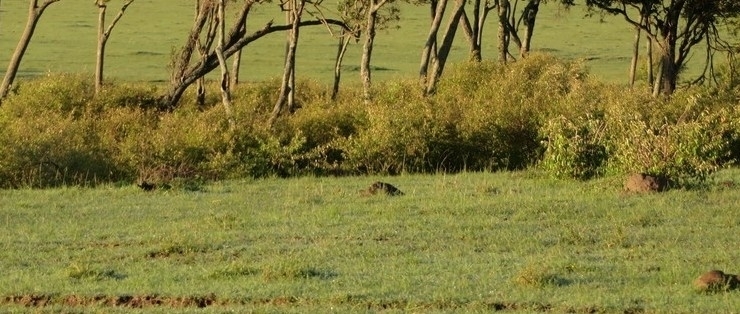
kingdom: Plantae
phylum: Tracheophyta
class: Magnoliopsida
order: Malpighiales
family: Euphorbiaceae
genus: Croton
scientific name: Croton dichogamus
